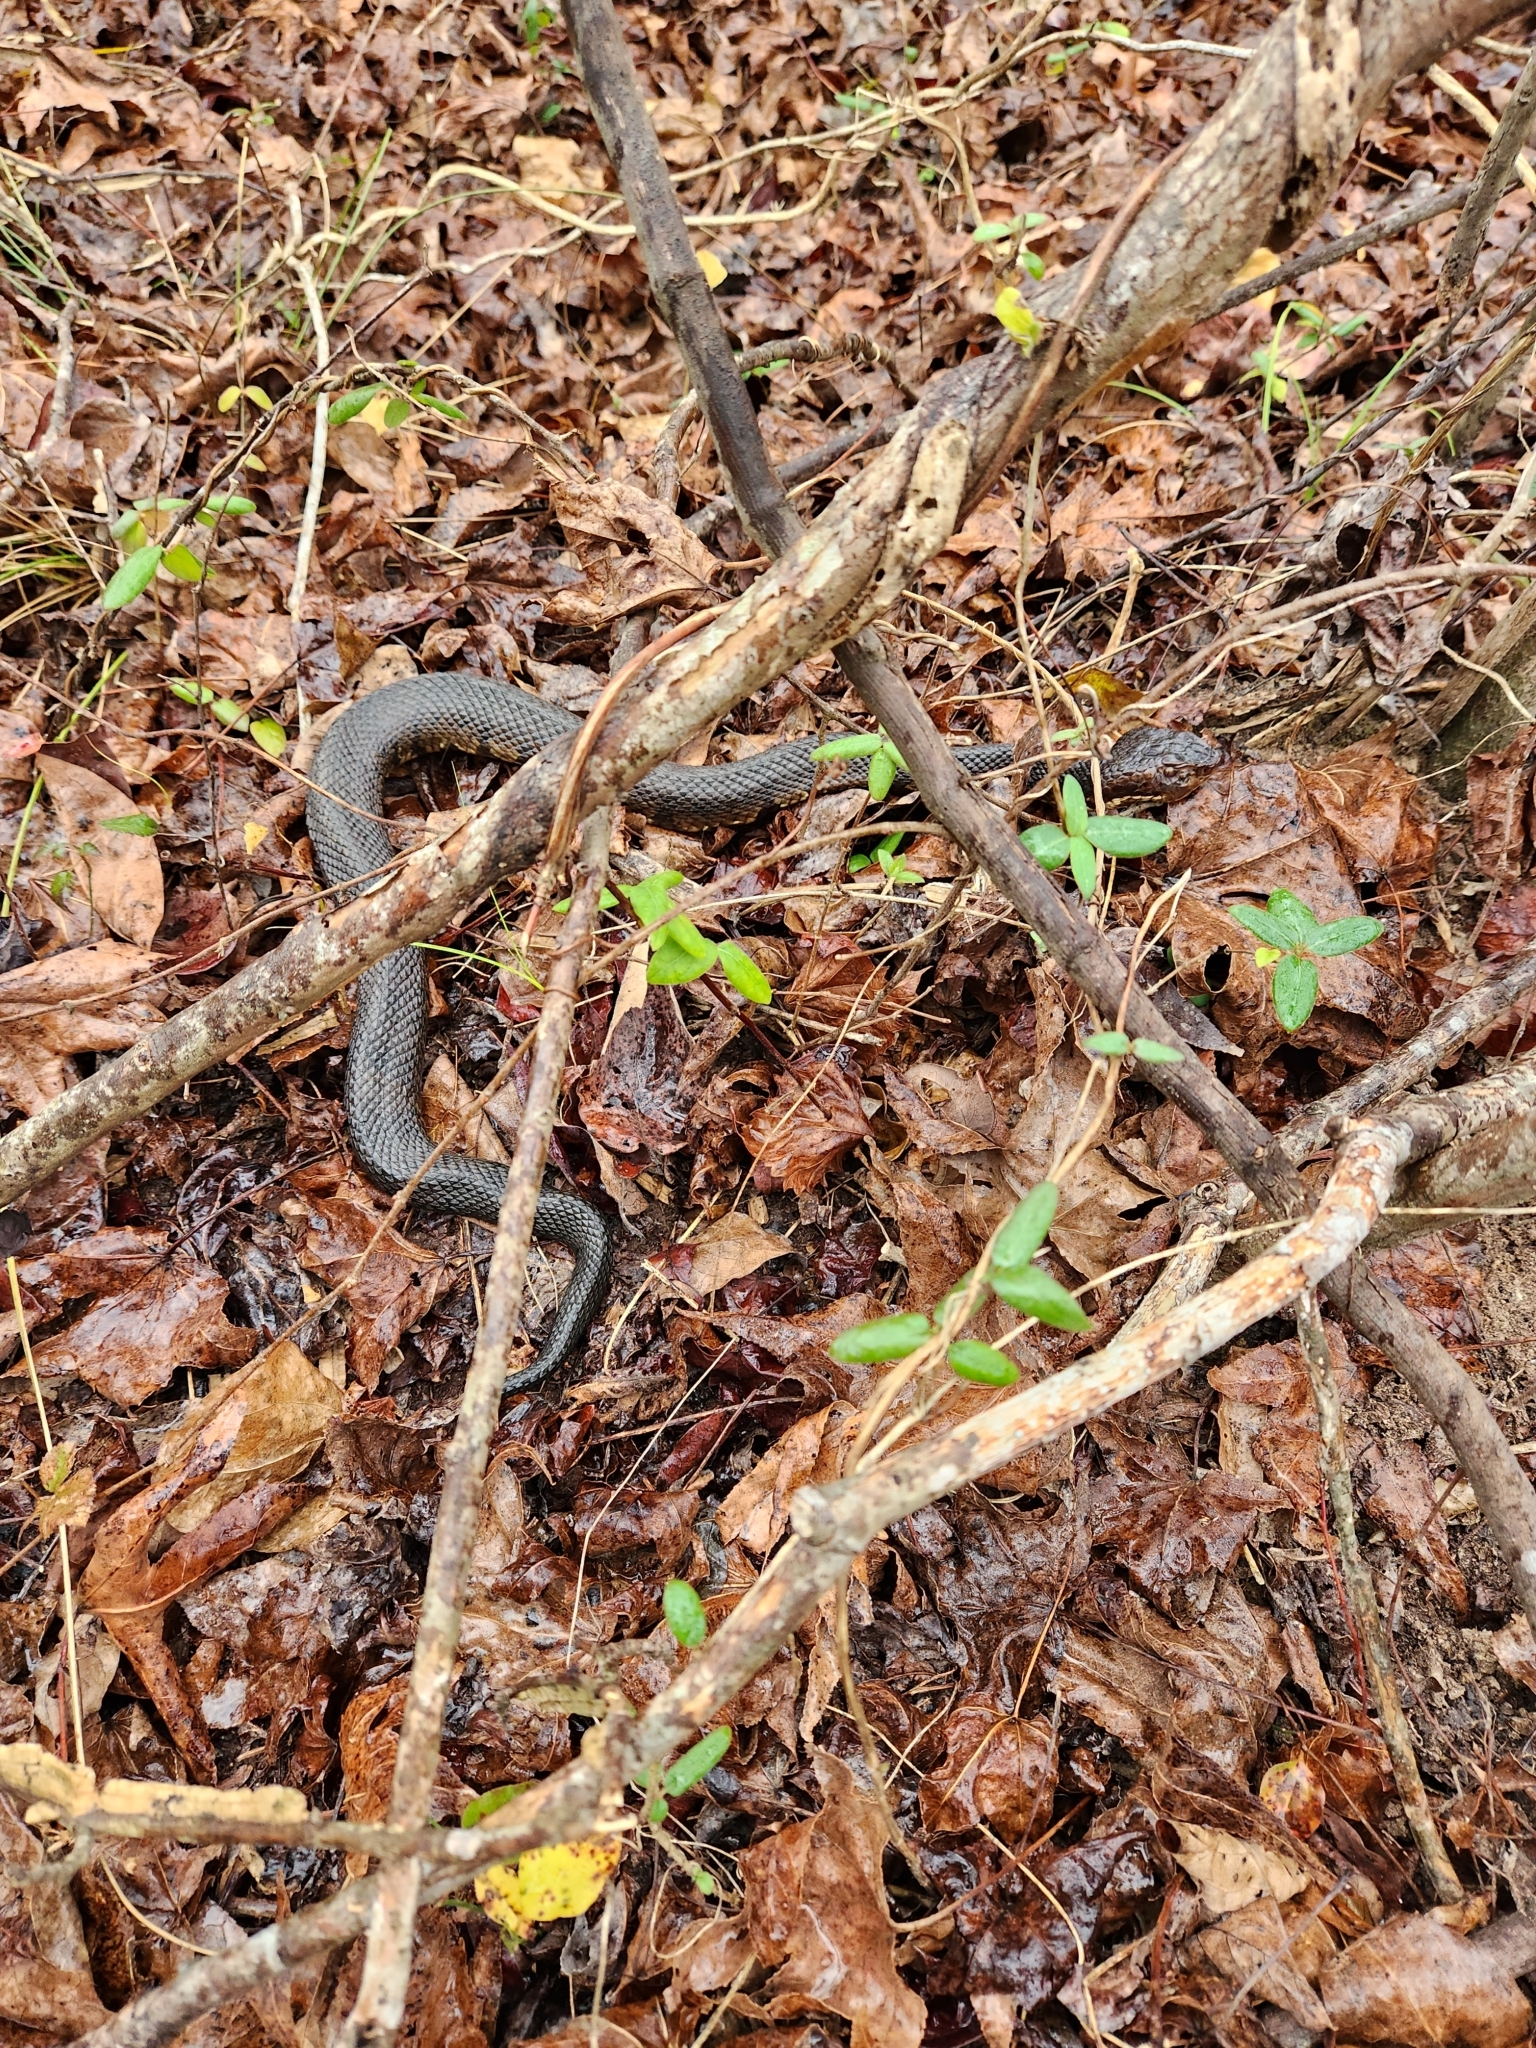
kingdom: Animalia
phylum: Chordata
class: Squamata
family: Viperidae
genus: Agkistrodon
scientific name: Agkistrodon piscivorus
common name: Cottonmouth
